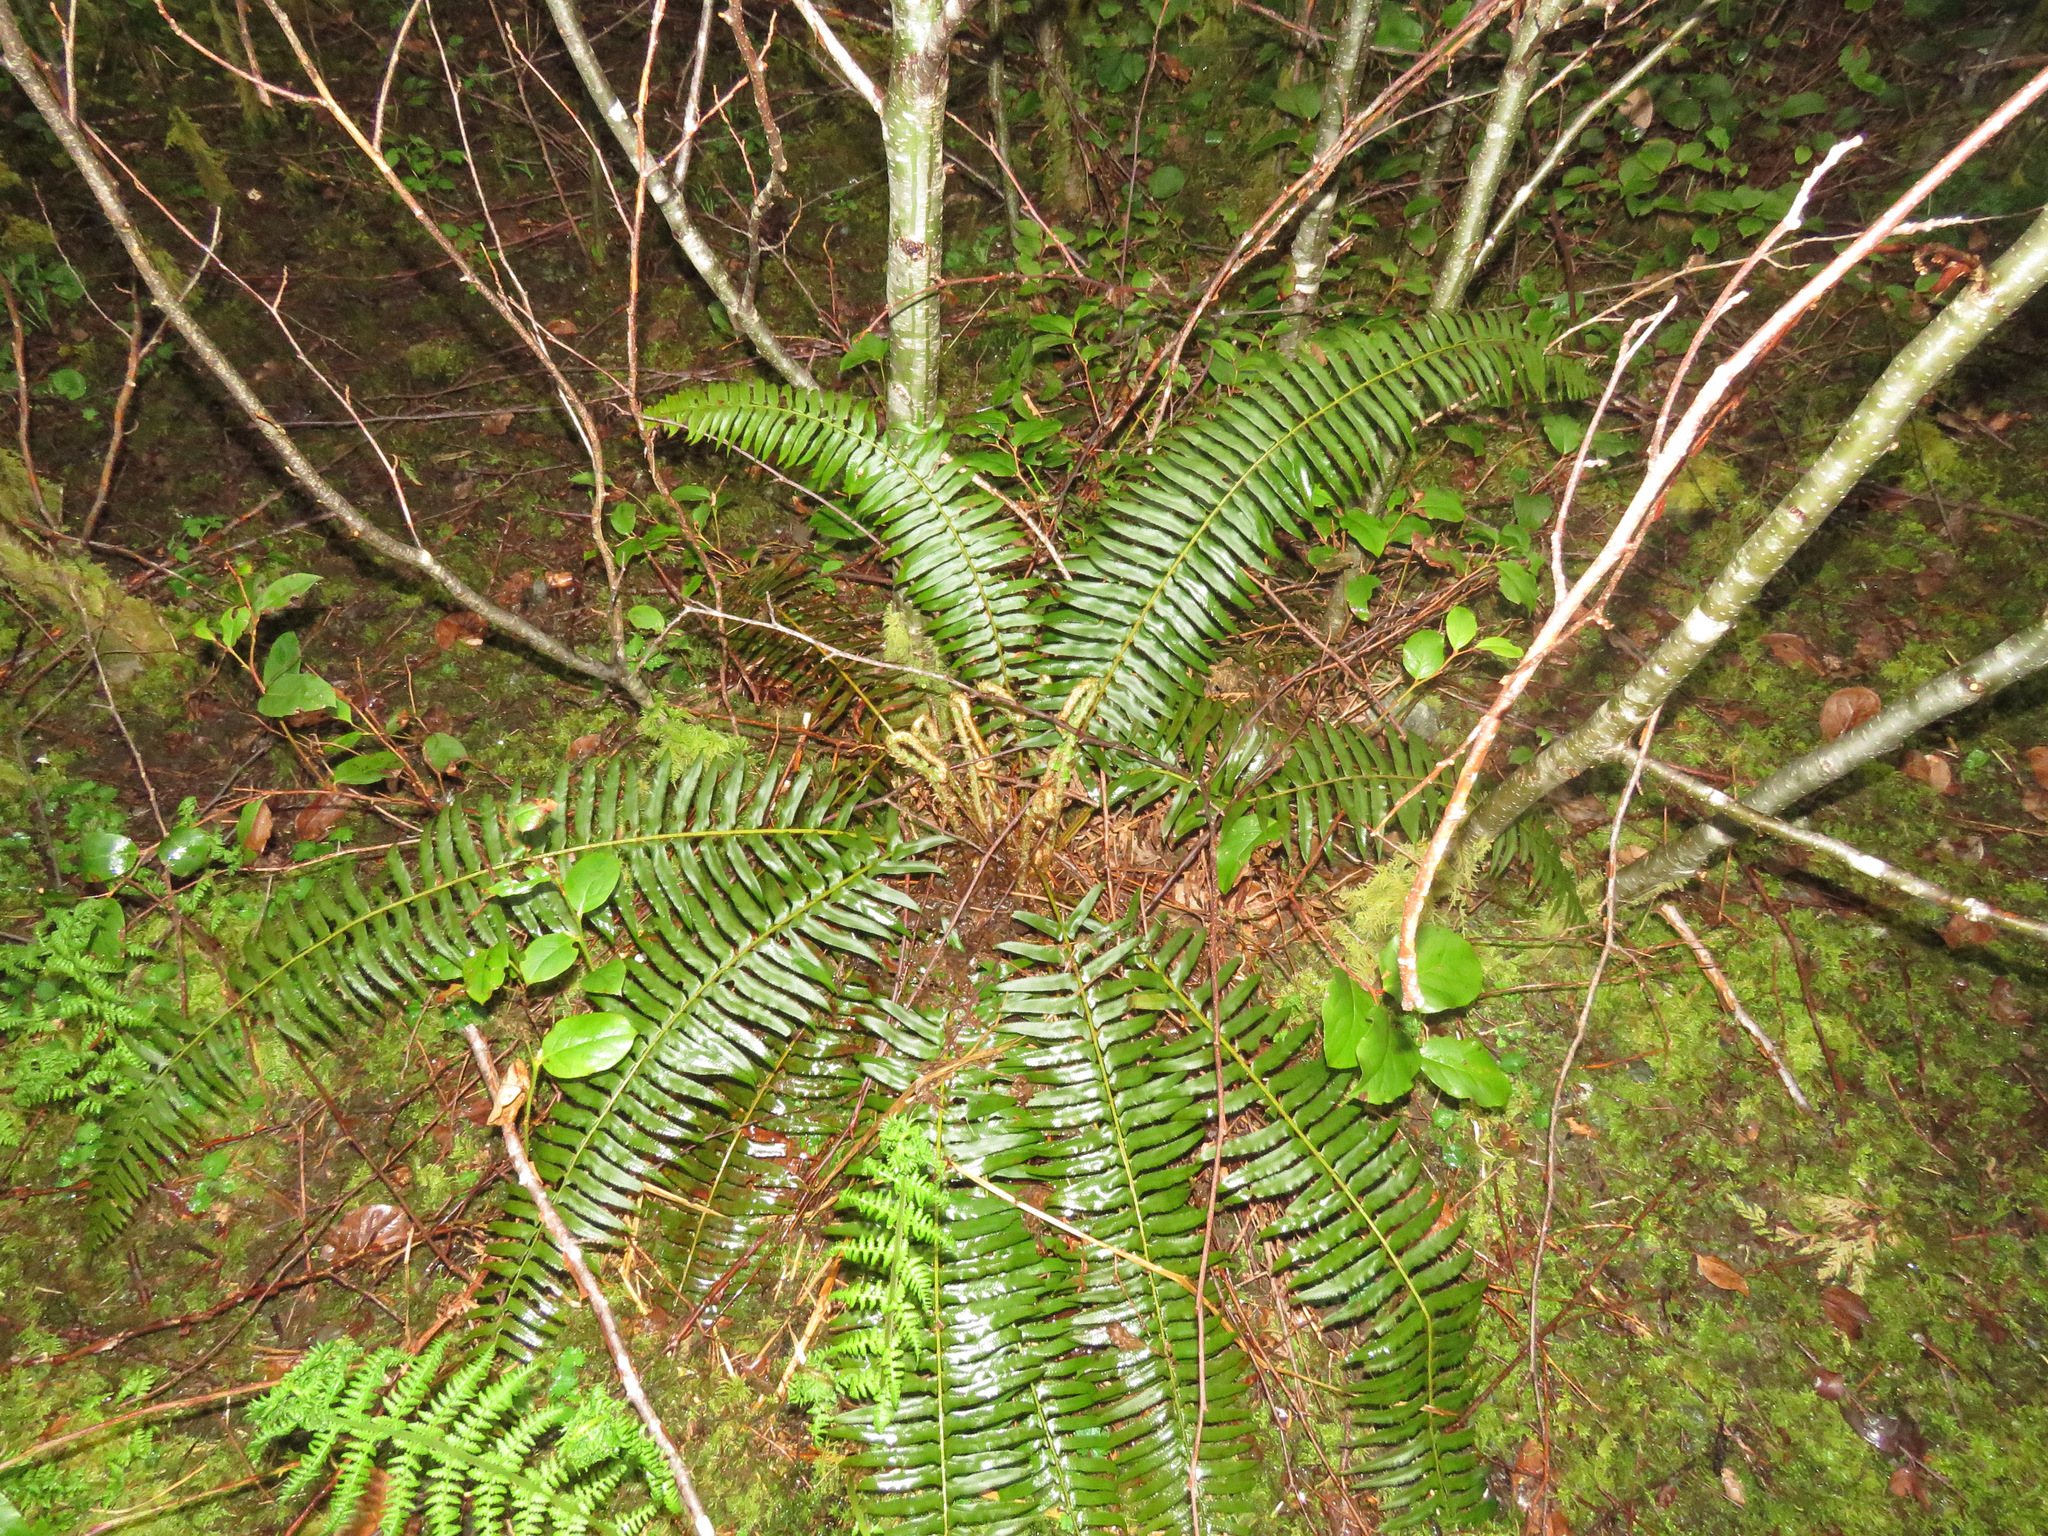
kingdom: Plantae
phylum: Tracheophyta
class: Polypodiopsida
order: Polypodiales
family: Dryopteridaceae
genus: Polystichum
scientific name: Polystichum munitum
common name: Western sword-fern
